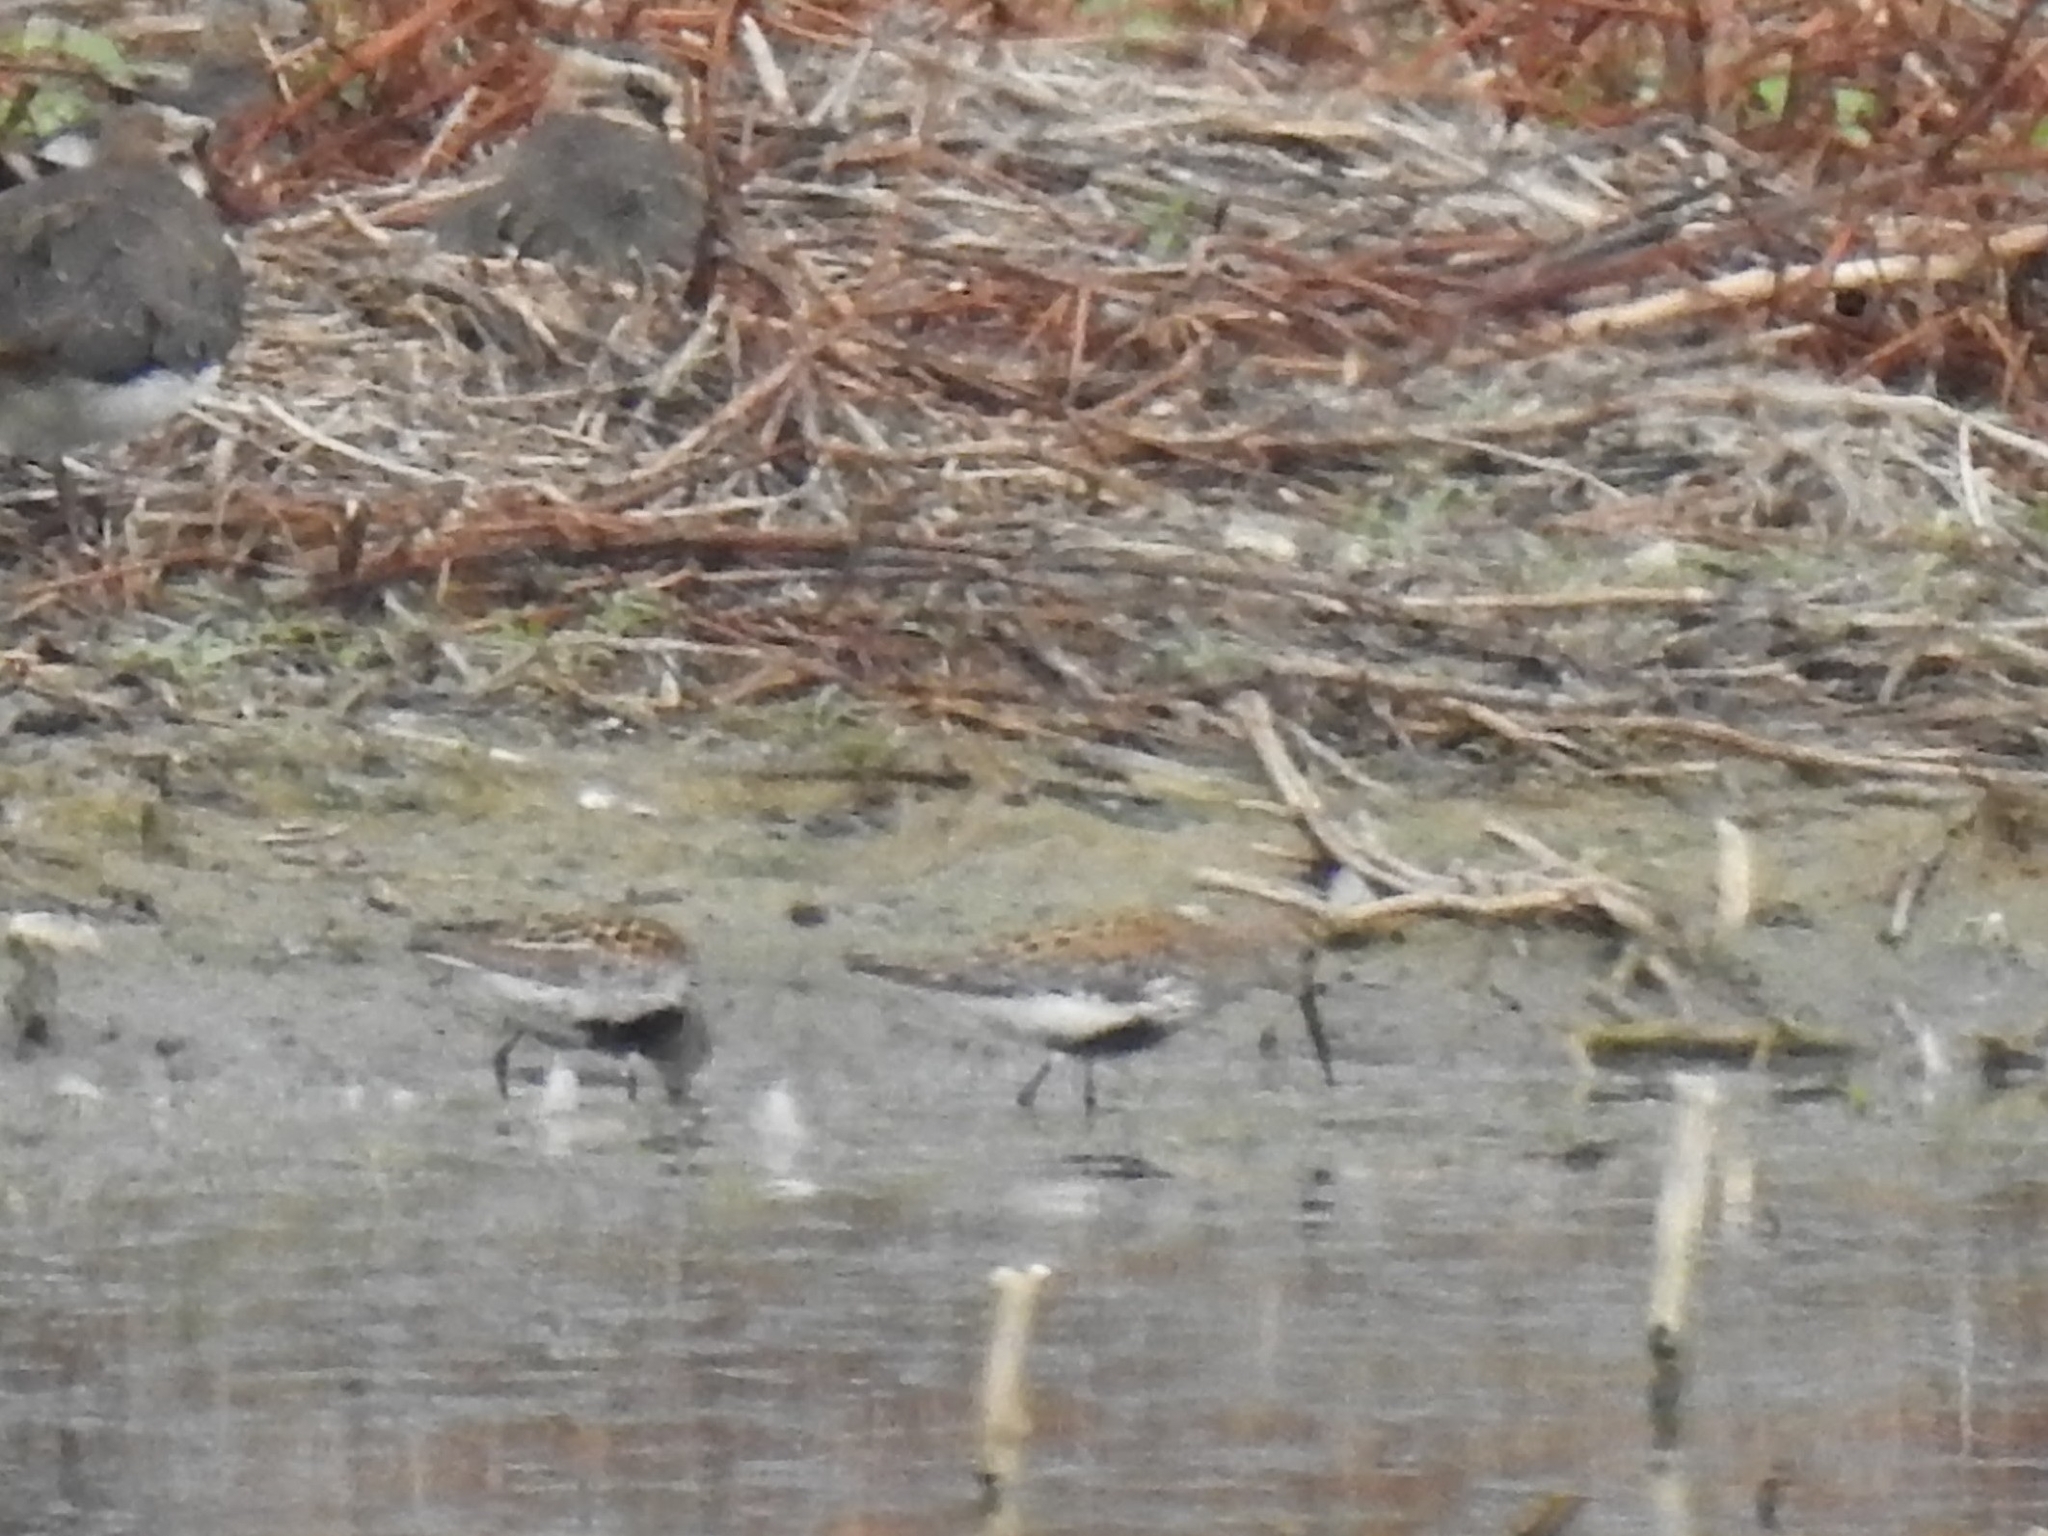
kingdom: Animalia
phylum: Chordata
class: Aves
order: Charadriiformes
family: Scolopacidae
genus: Calidris
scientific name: Calidris alpina
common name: Dunlin
